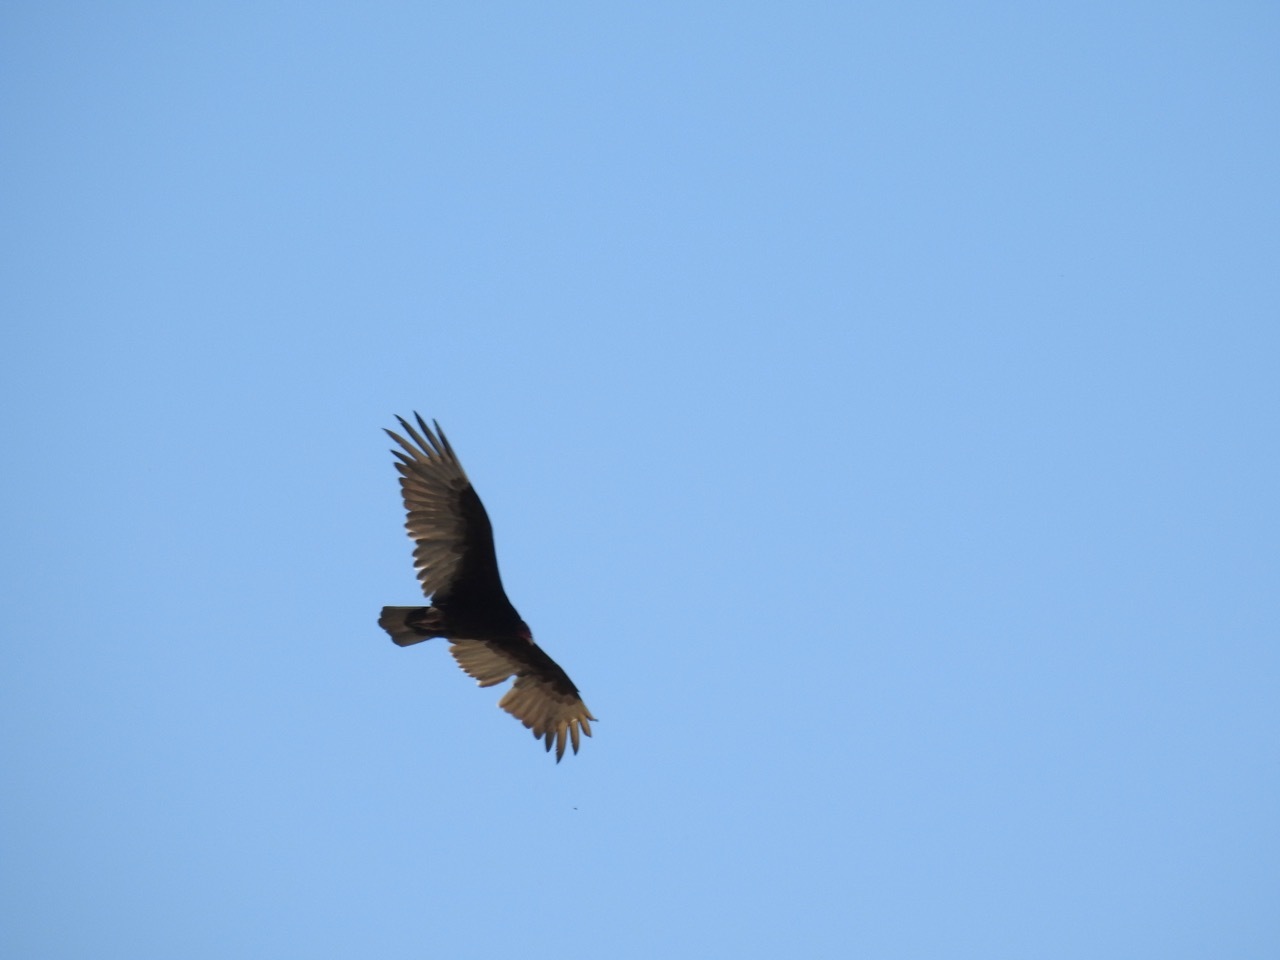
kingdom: Animalia
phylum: Chordata
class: Aves
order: Accipitriformes
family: Cathartidae
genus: Cathartes
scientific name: Cathartes aura
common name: Turkey vulture
